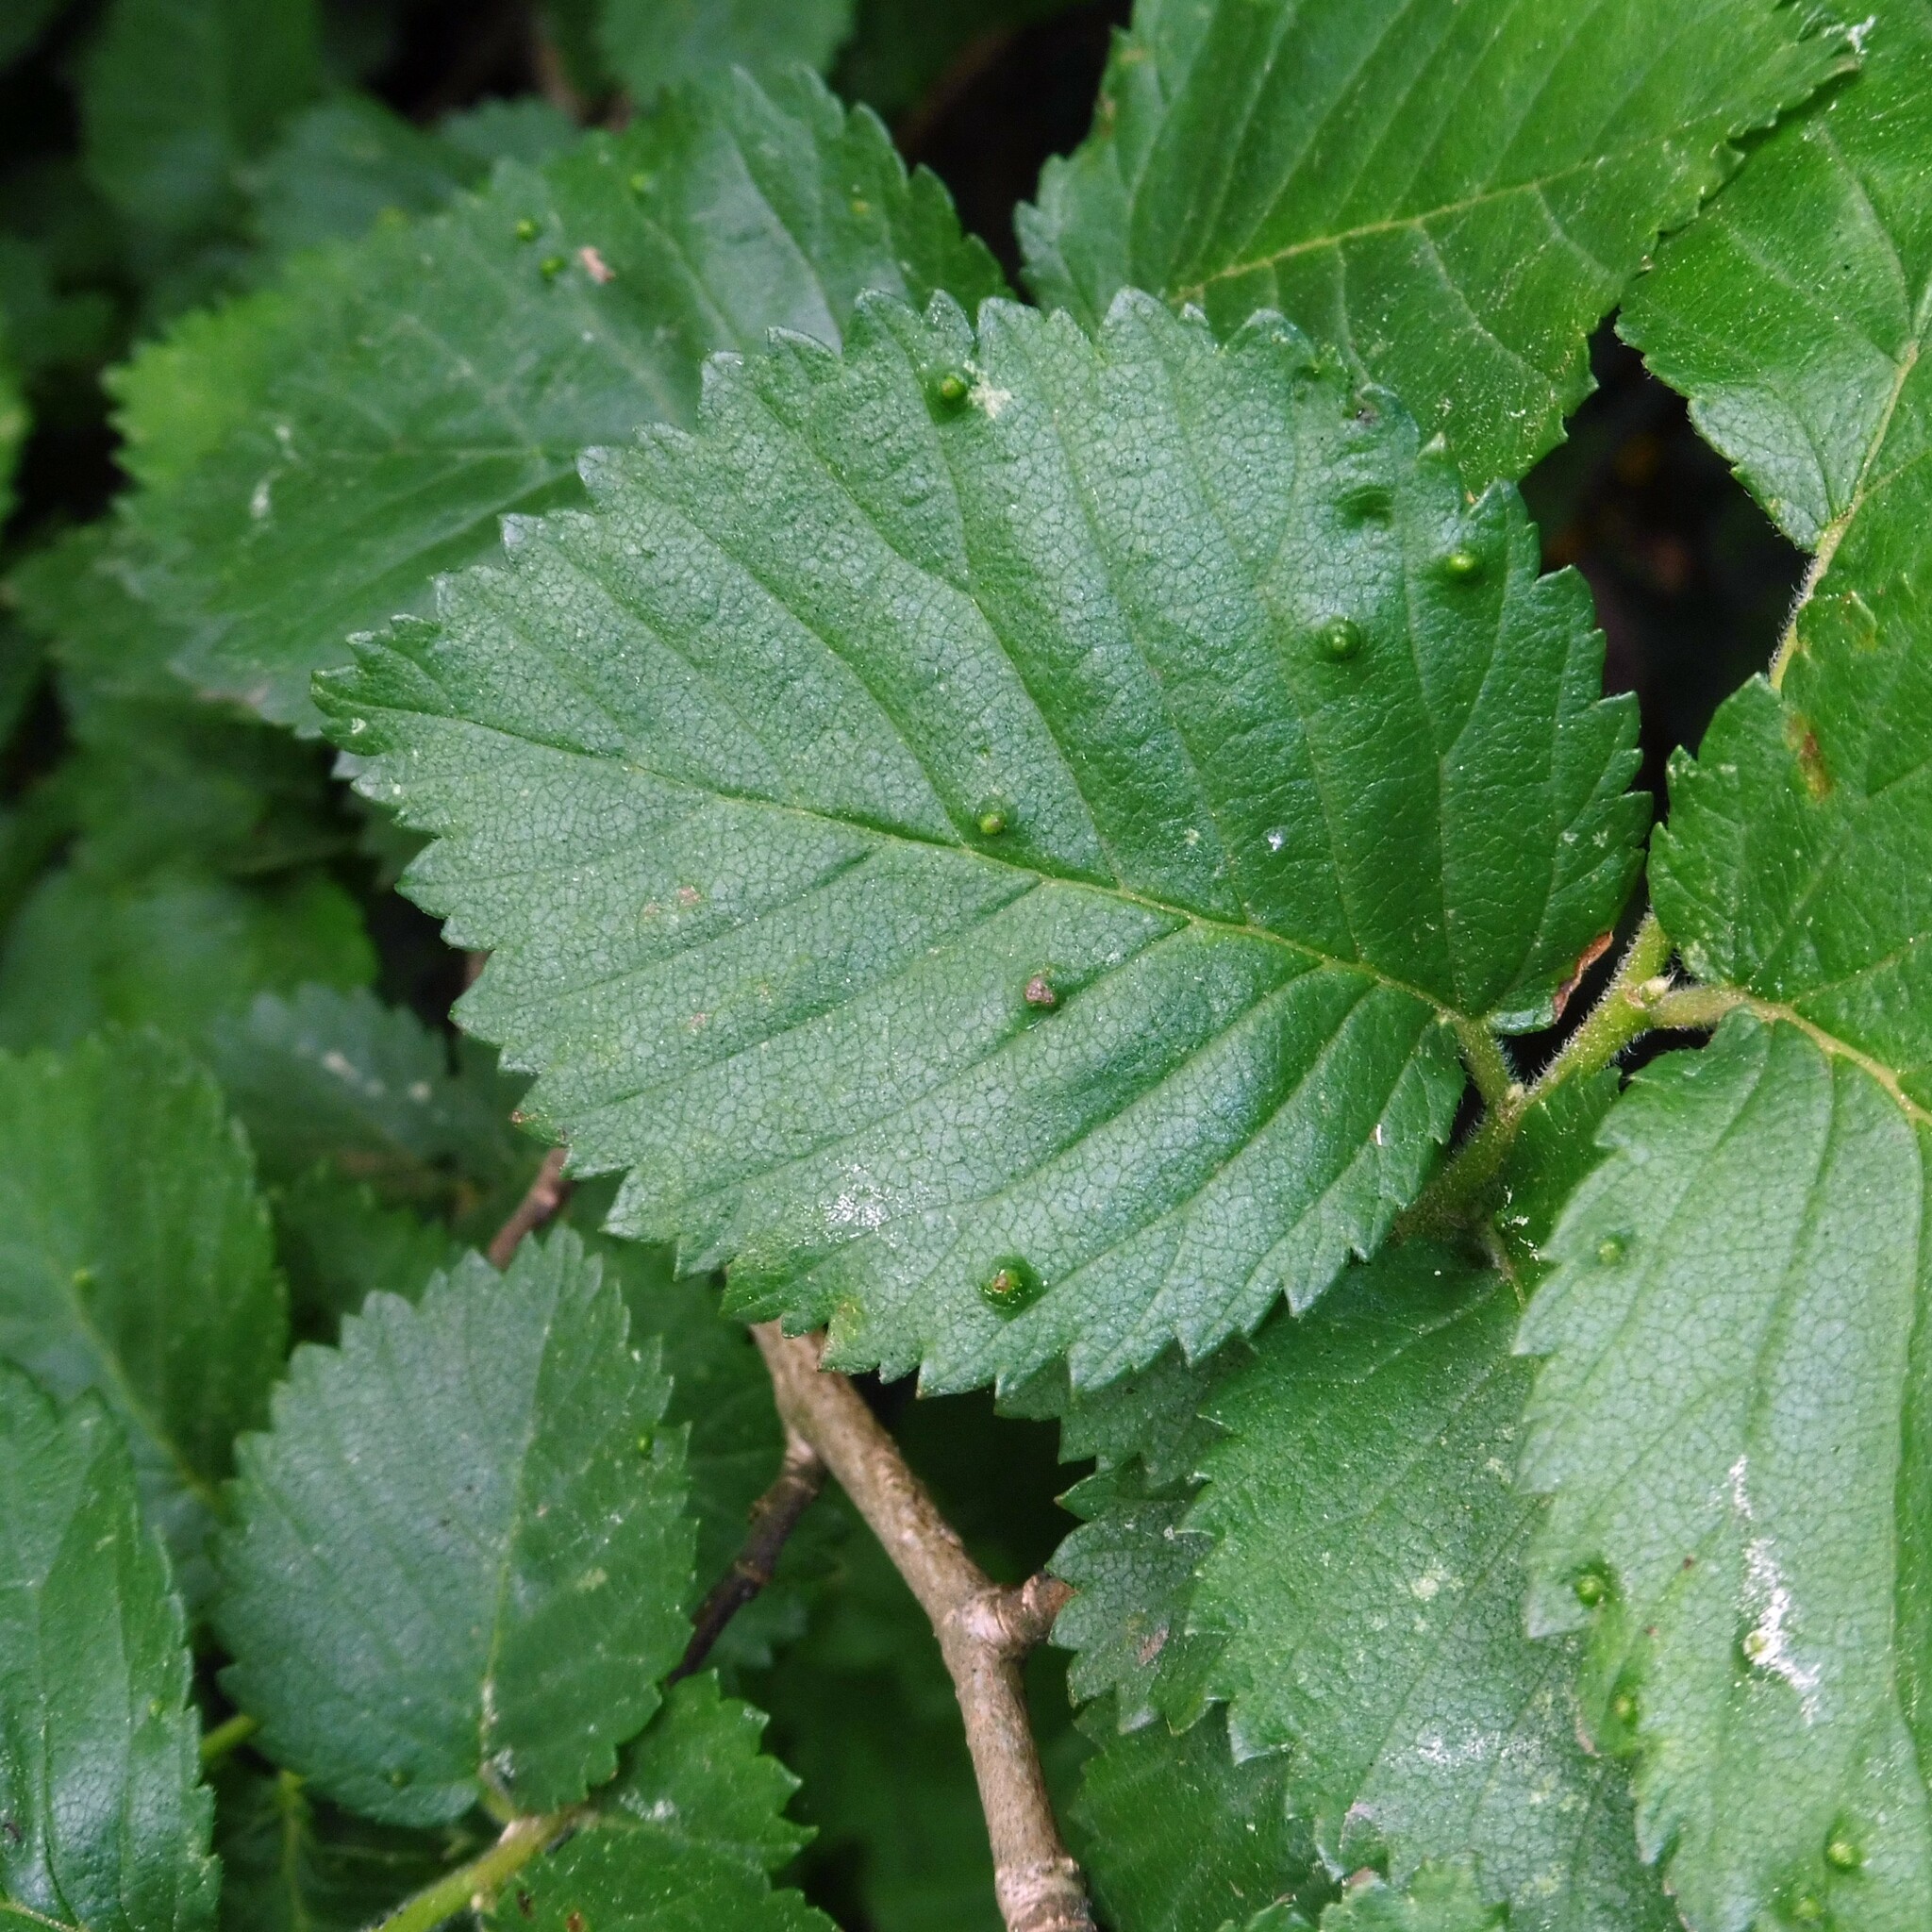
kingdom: Plantae
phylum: Tracheophyta
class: Magnoliopsida
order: Rosales
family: Ulmaceae
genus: Ulmus
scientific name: Ulmus minor
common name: Small-leaved elm
